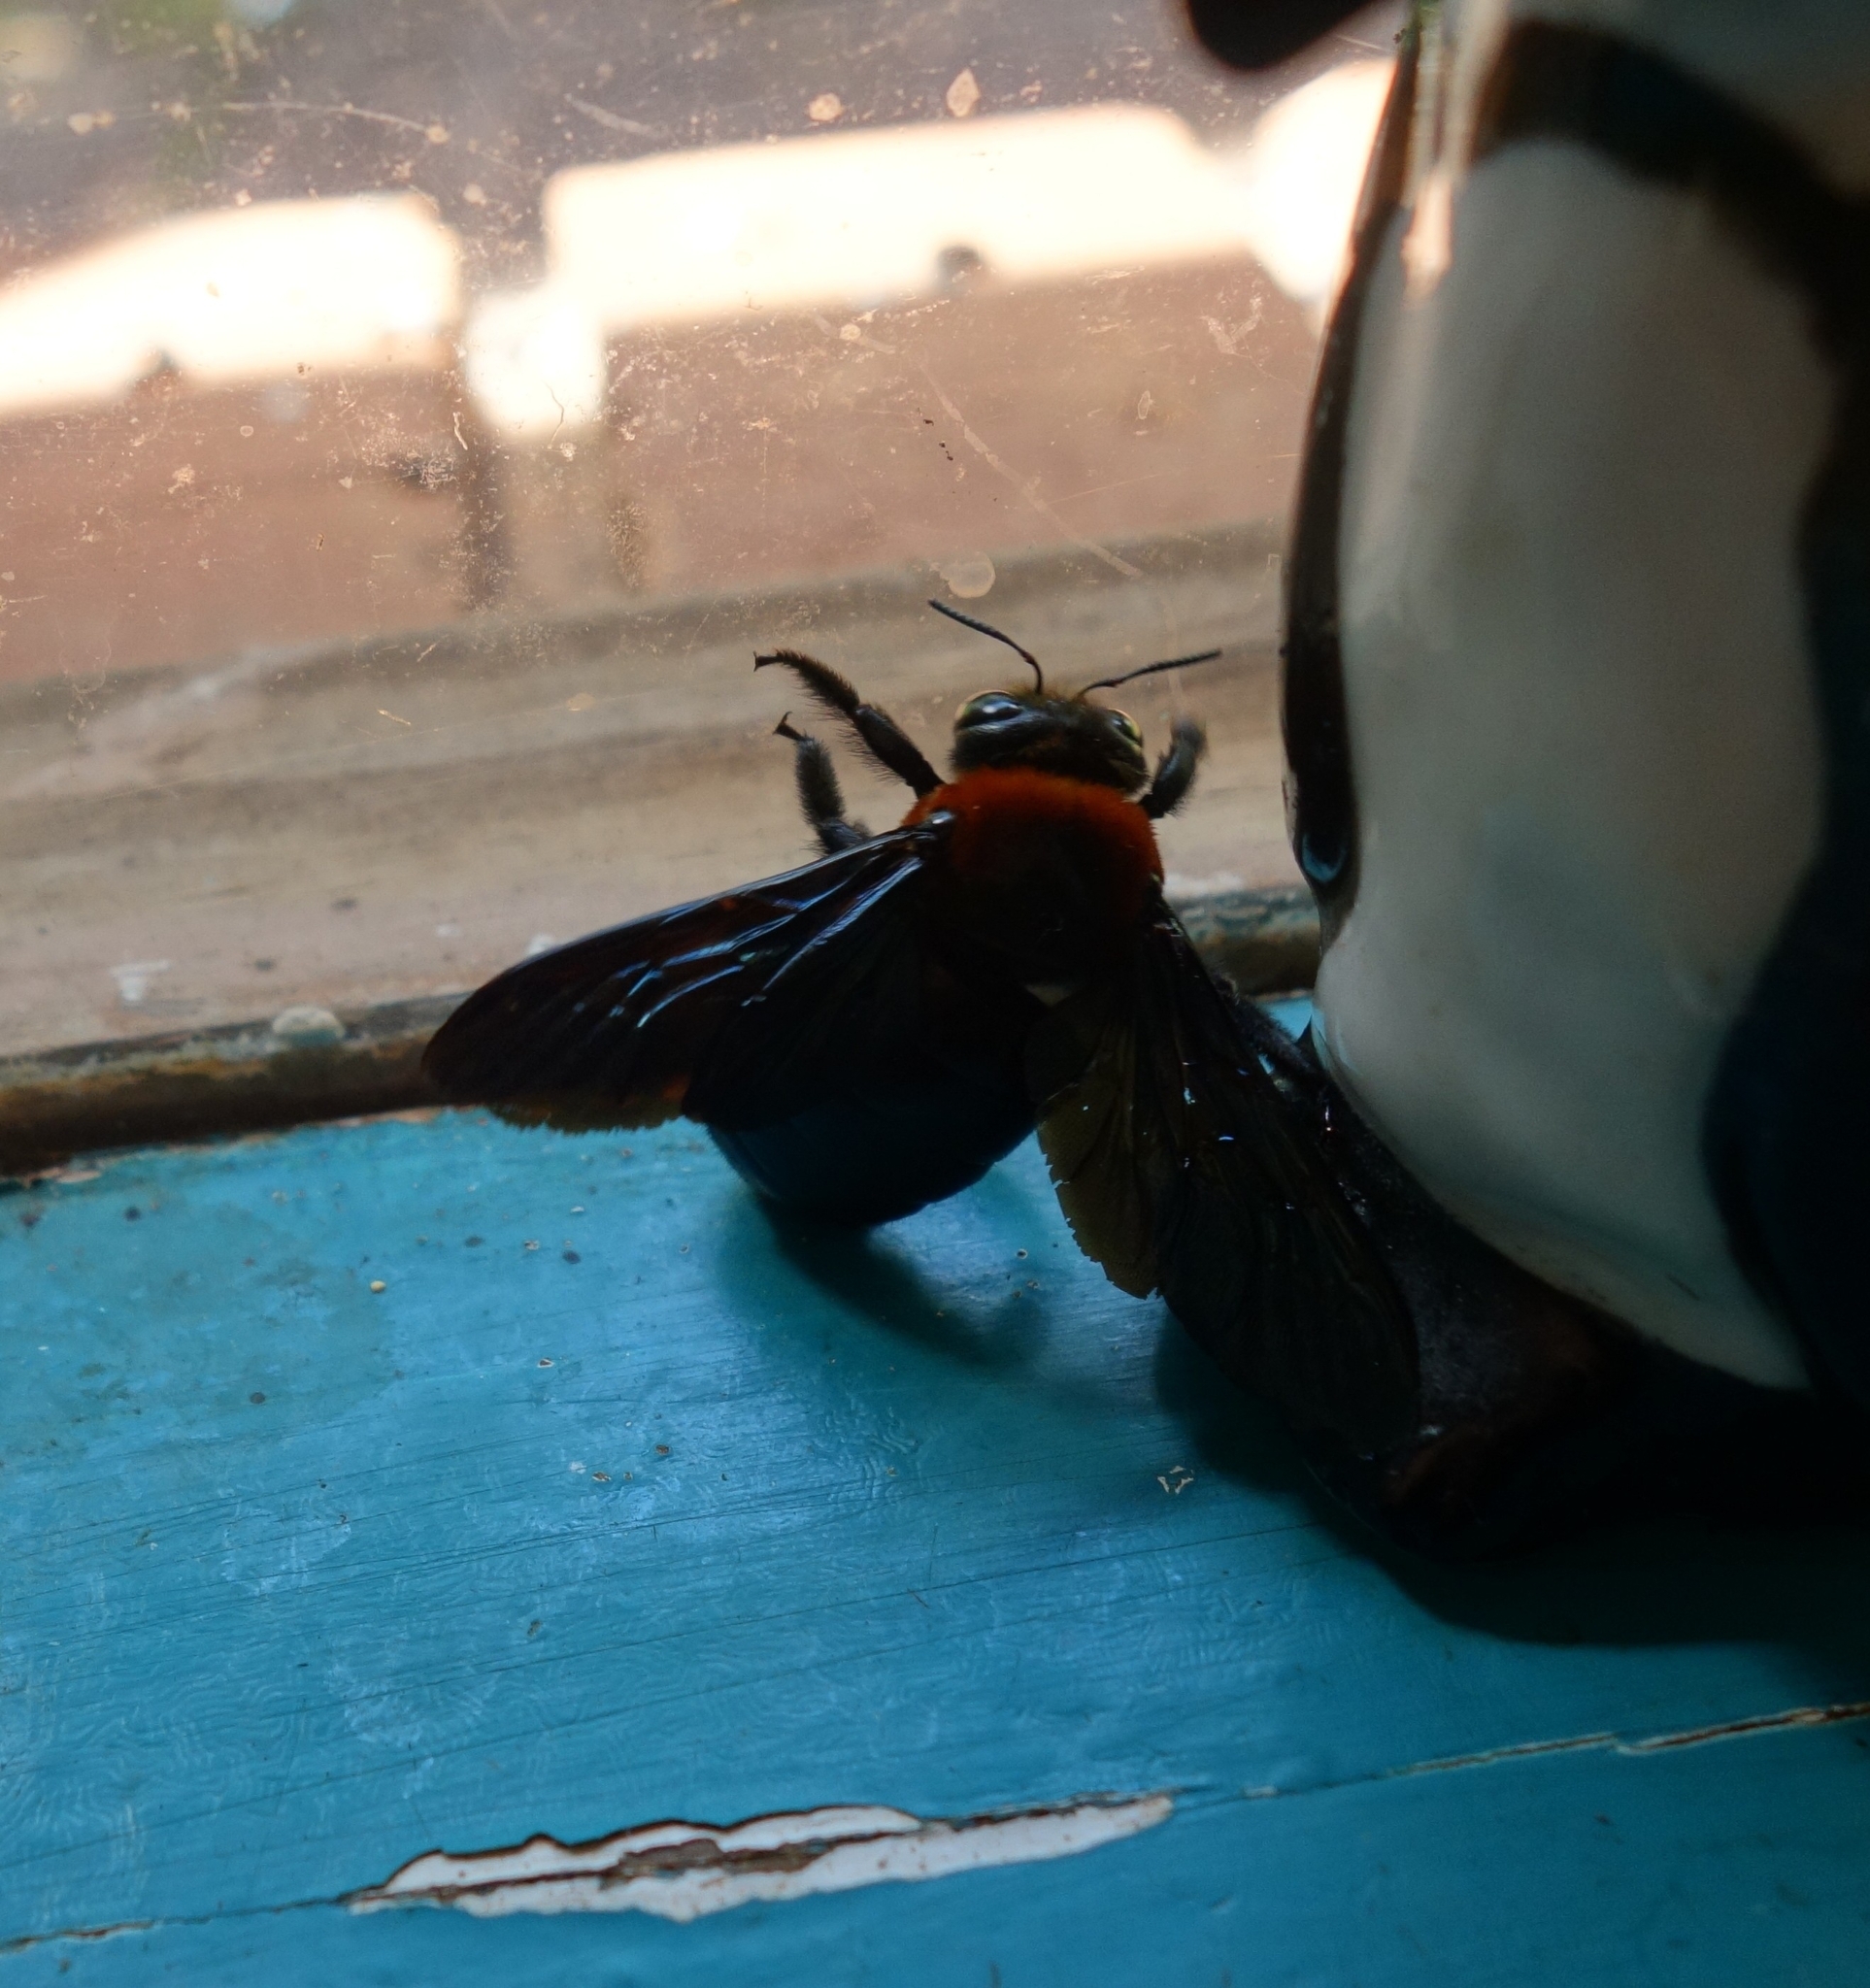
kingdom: Animalia
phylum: Arthropoda
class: Insecta
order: Hymenoptera
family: Apidae
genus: Xylocopa
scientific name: Xylocopa flavorufa
